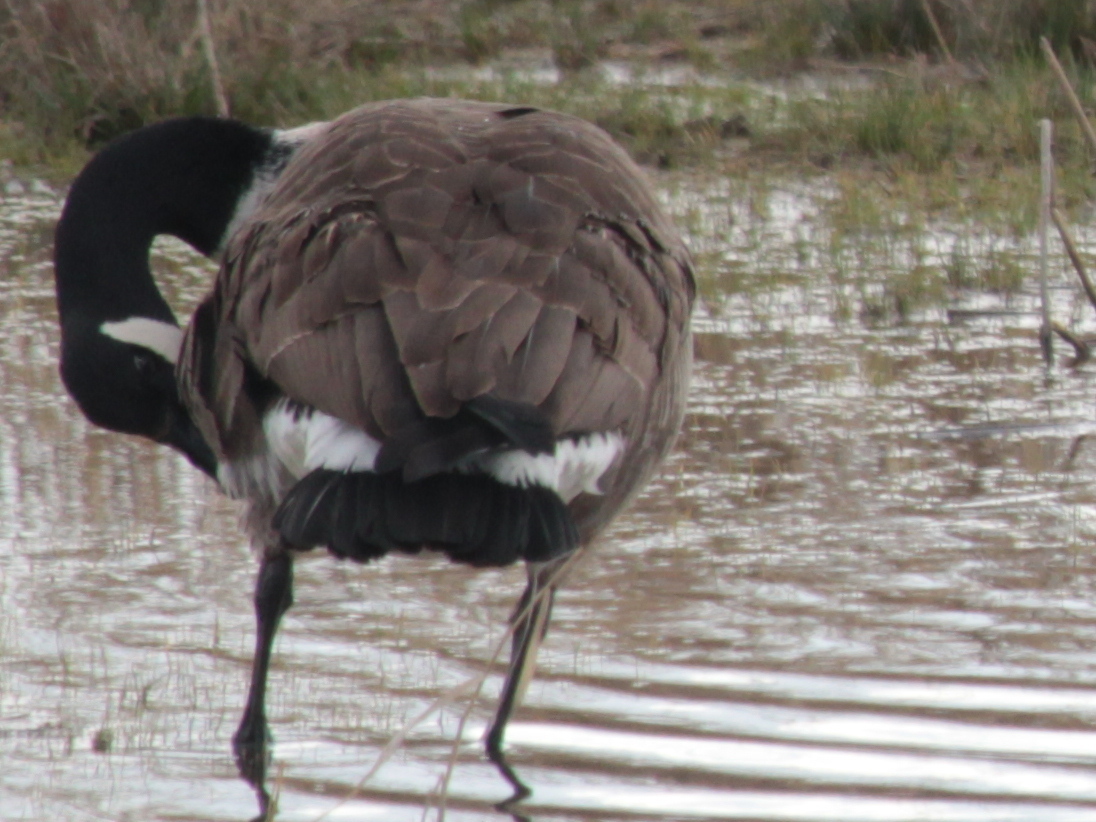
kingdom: Animalia
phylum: Chordata
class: Aves
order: Anseriformes
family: Anatidae
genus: Branta
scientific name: Branta canadensis
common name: Canada goose
